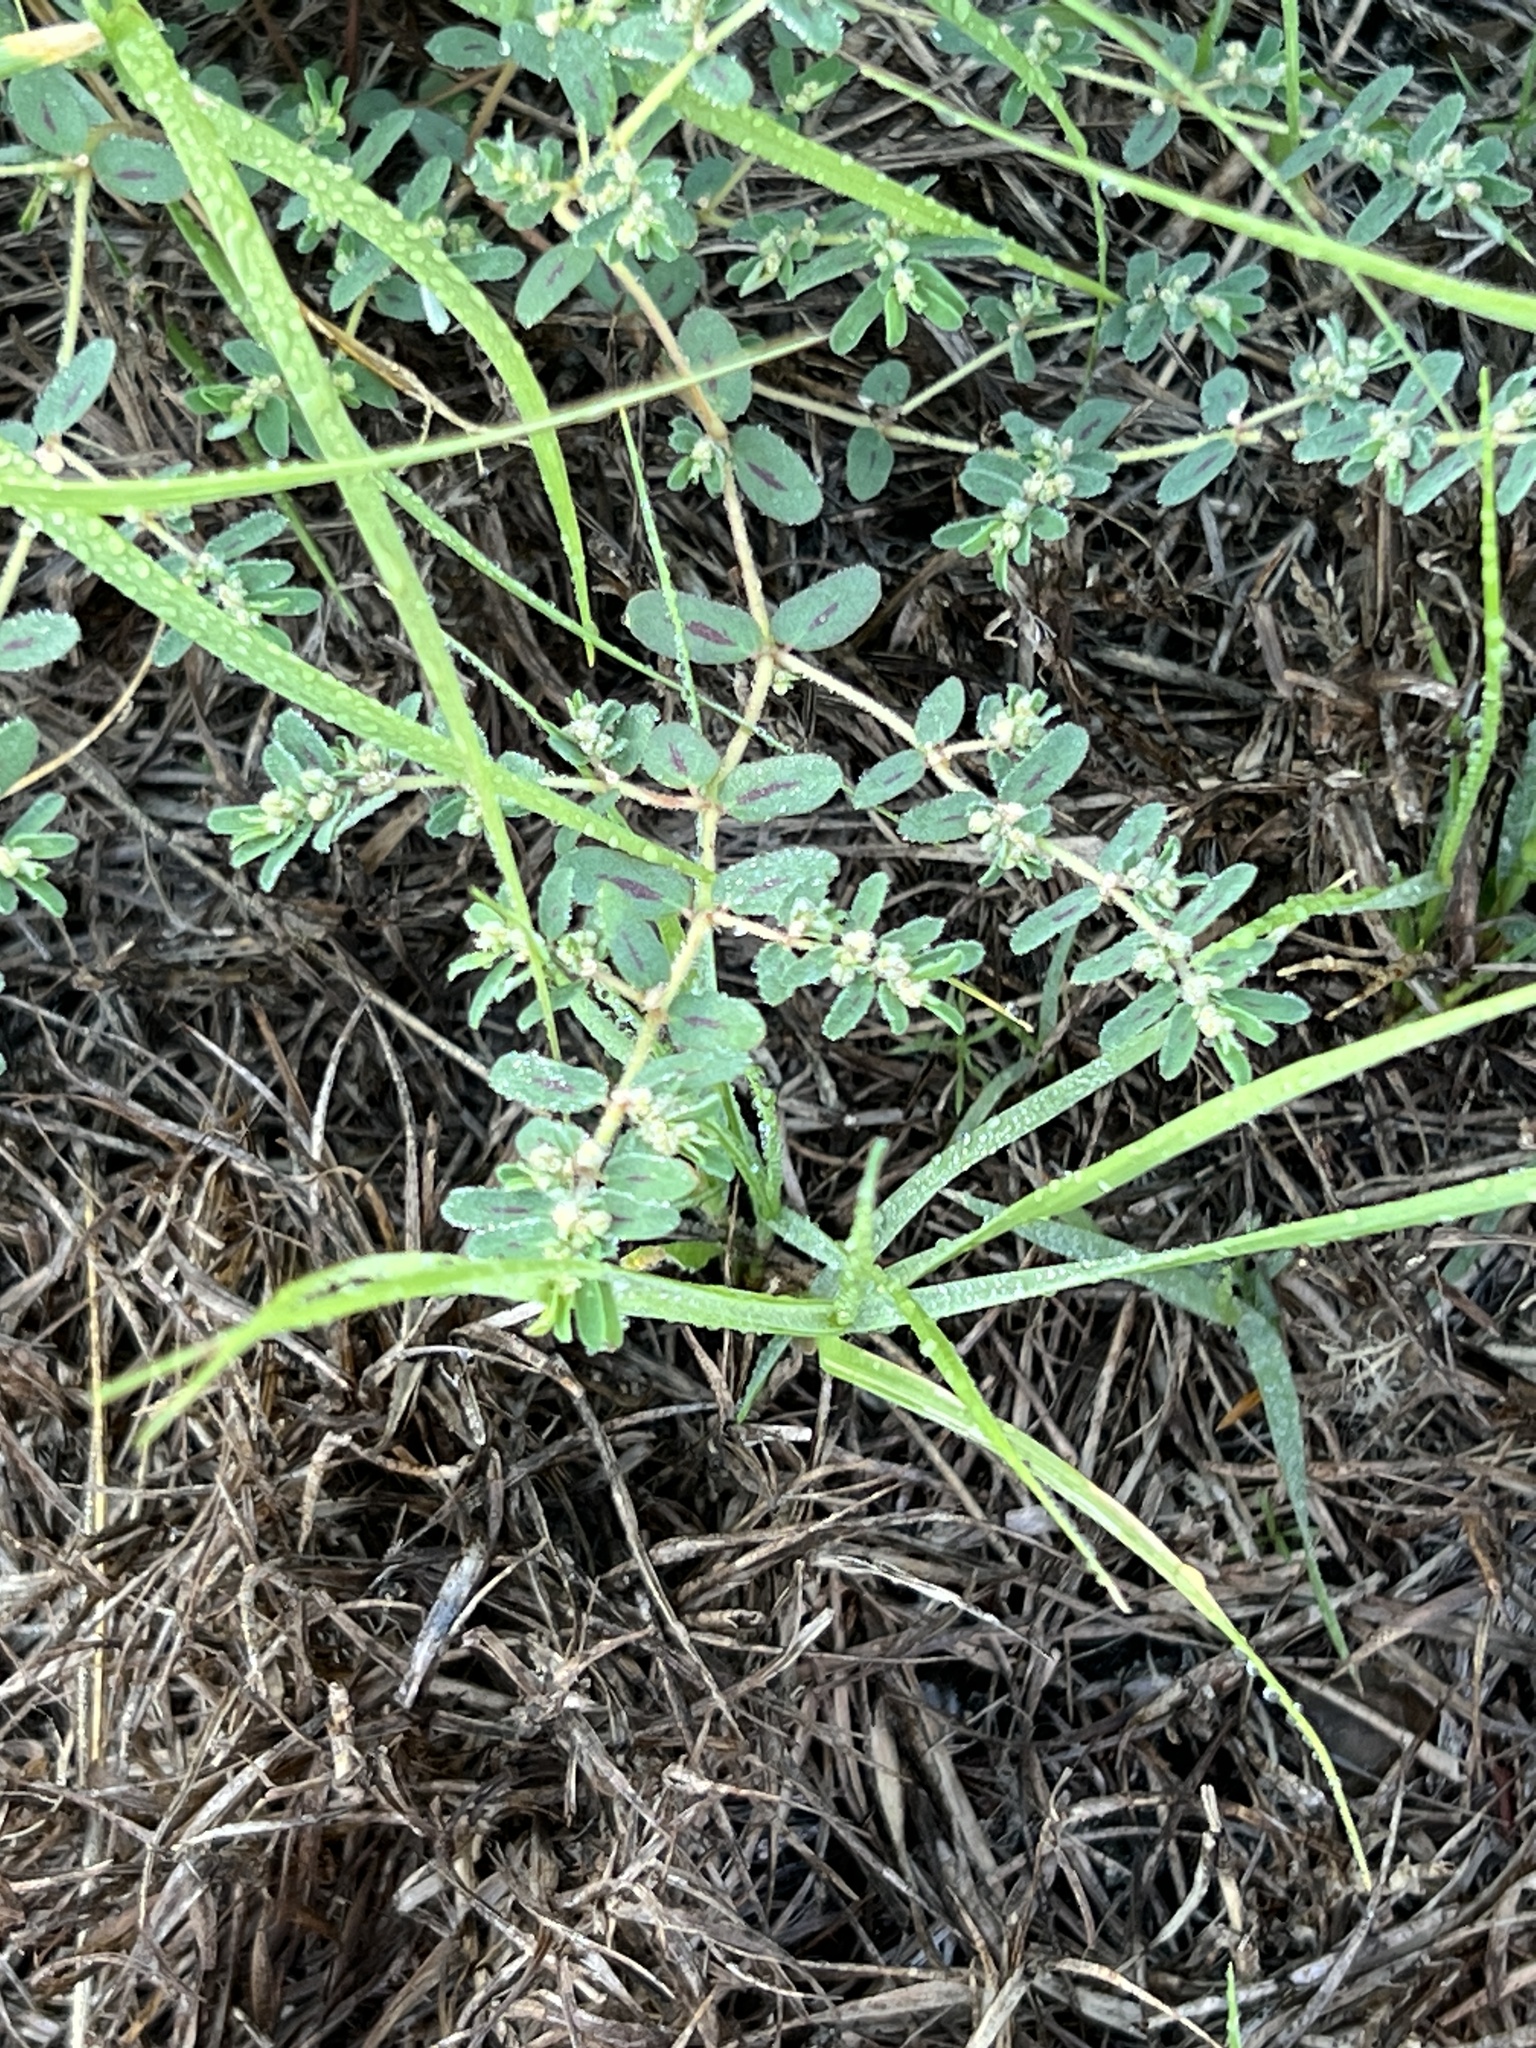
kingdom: Plantae
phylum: Tracheophyta
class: Magnoliopsida
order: Malpighiales
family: Euphorbiaceae
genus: Euphorbia
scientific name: Euphorbia maculata
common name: Spotted spurge
